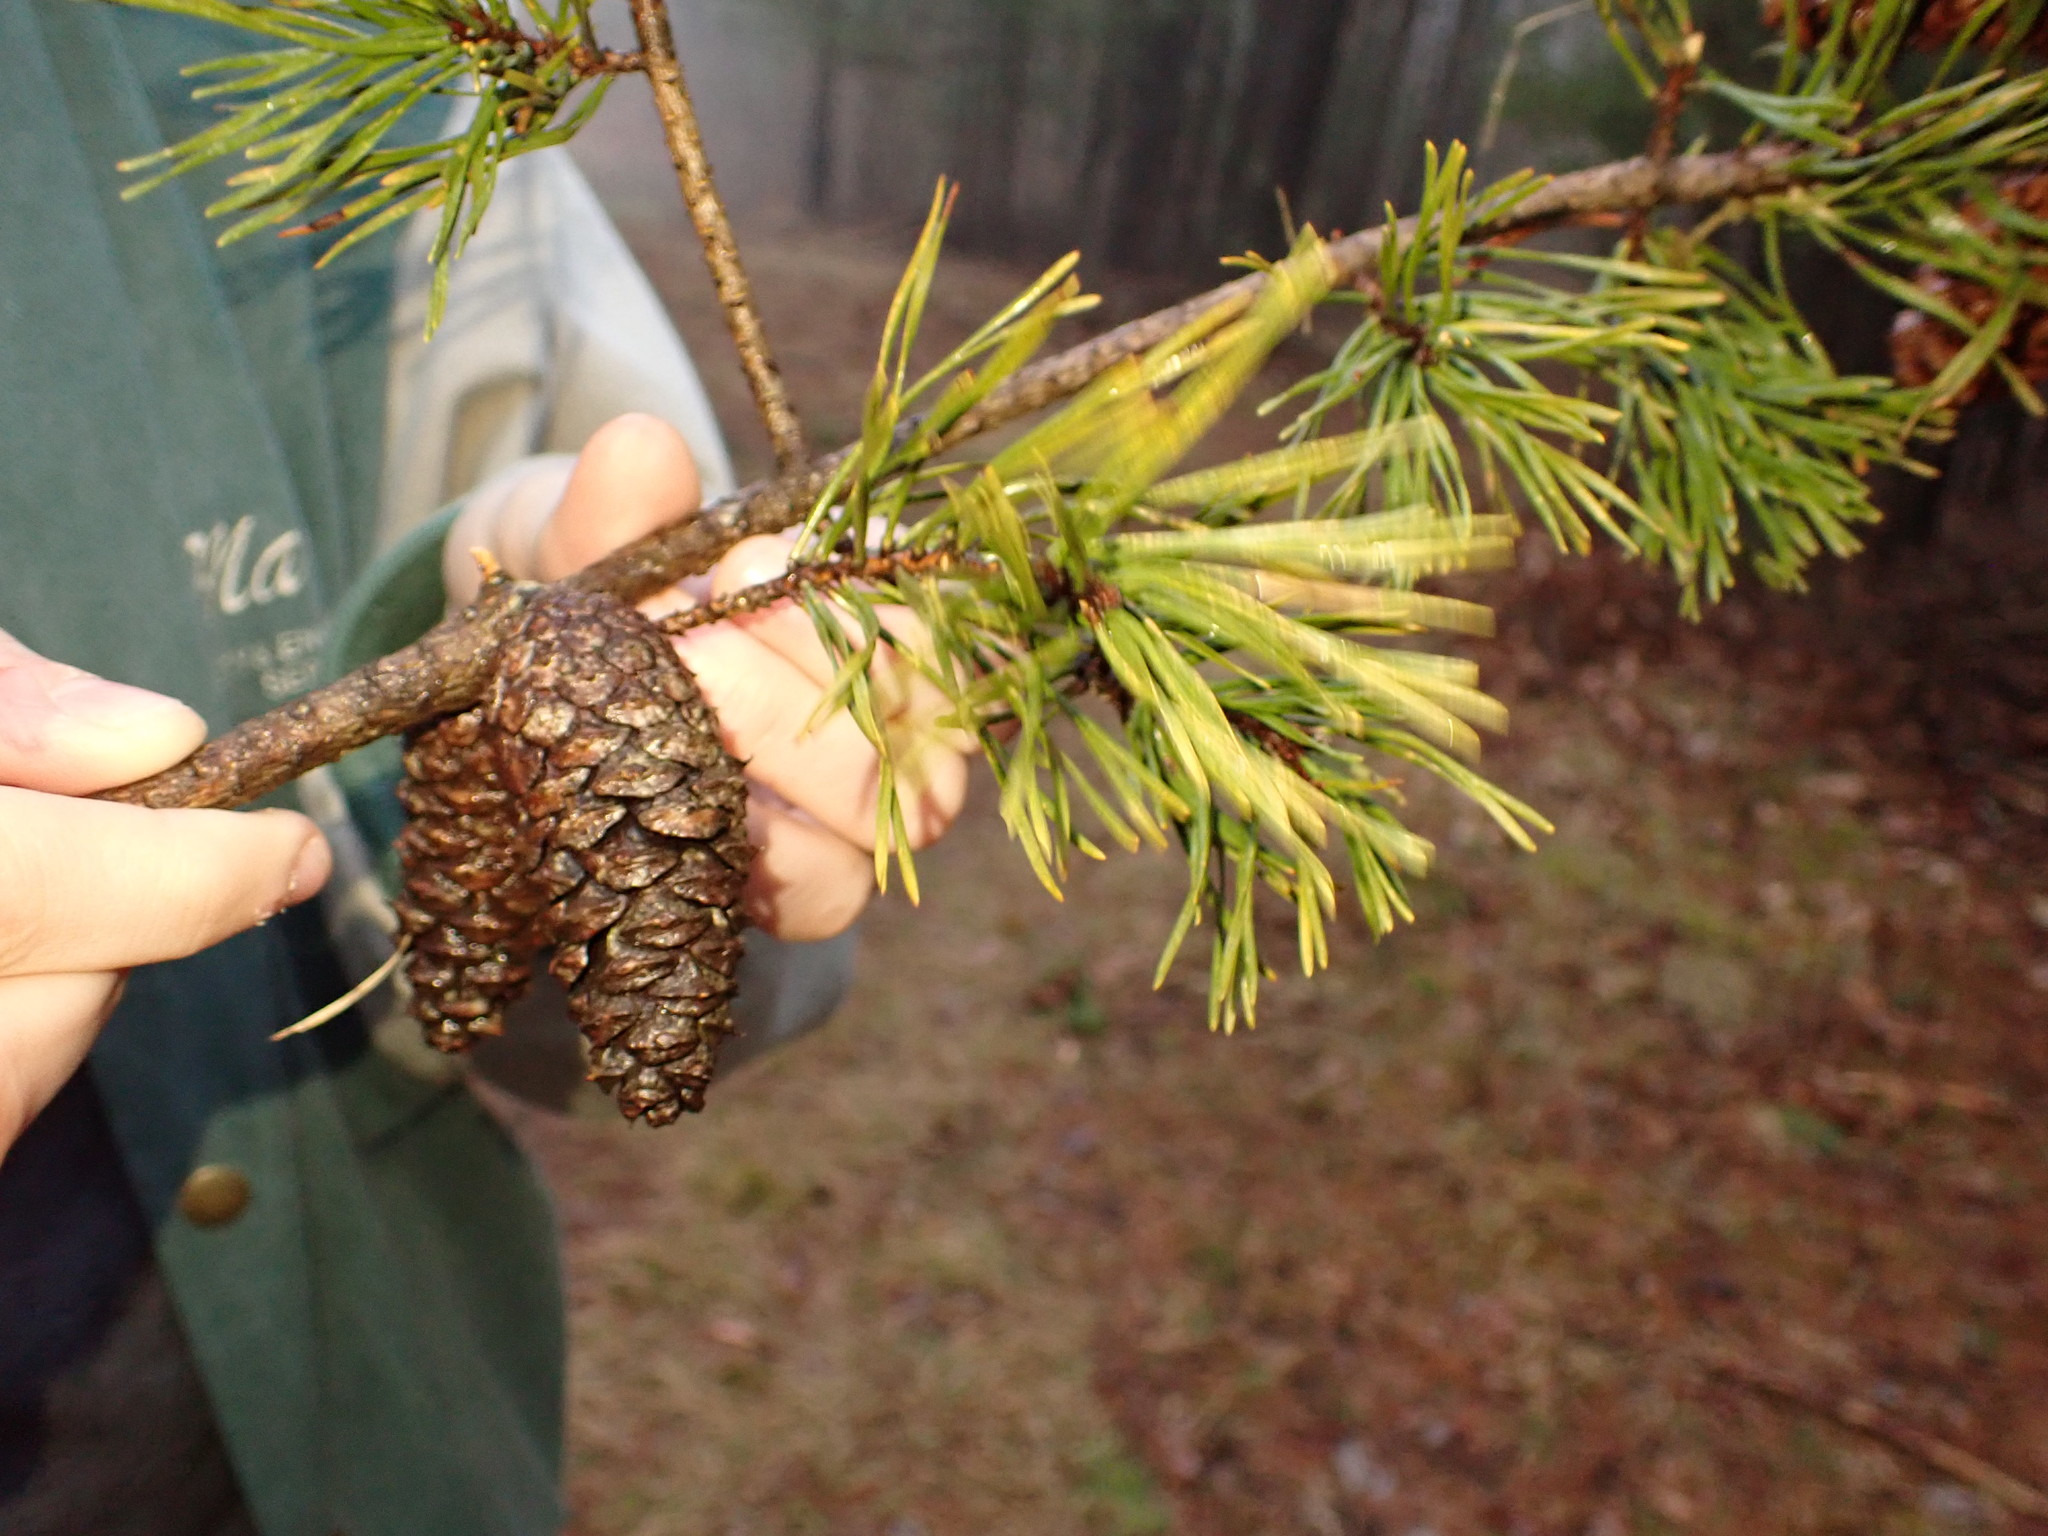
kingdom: Plantae
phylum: Tracheophyta
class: Pinopsida
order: Pinales
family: Pinaceae
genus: Pinus
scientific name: Pinus virginiana
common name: Scrub pine
